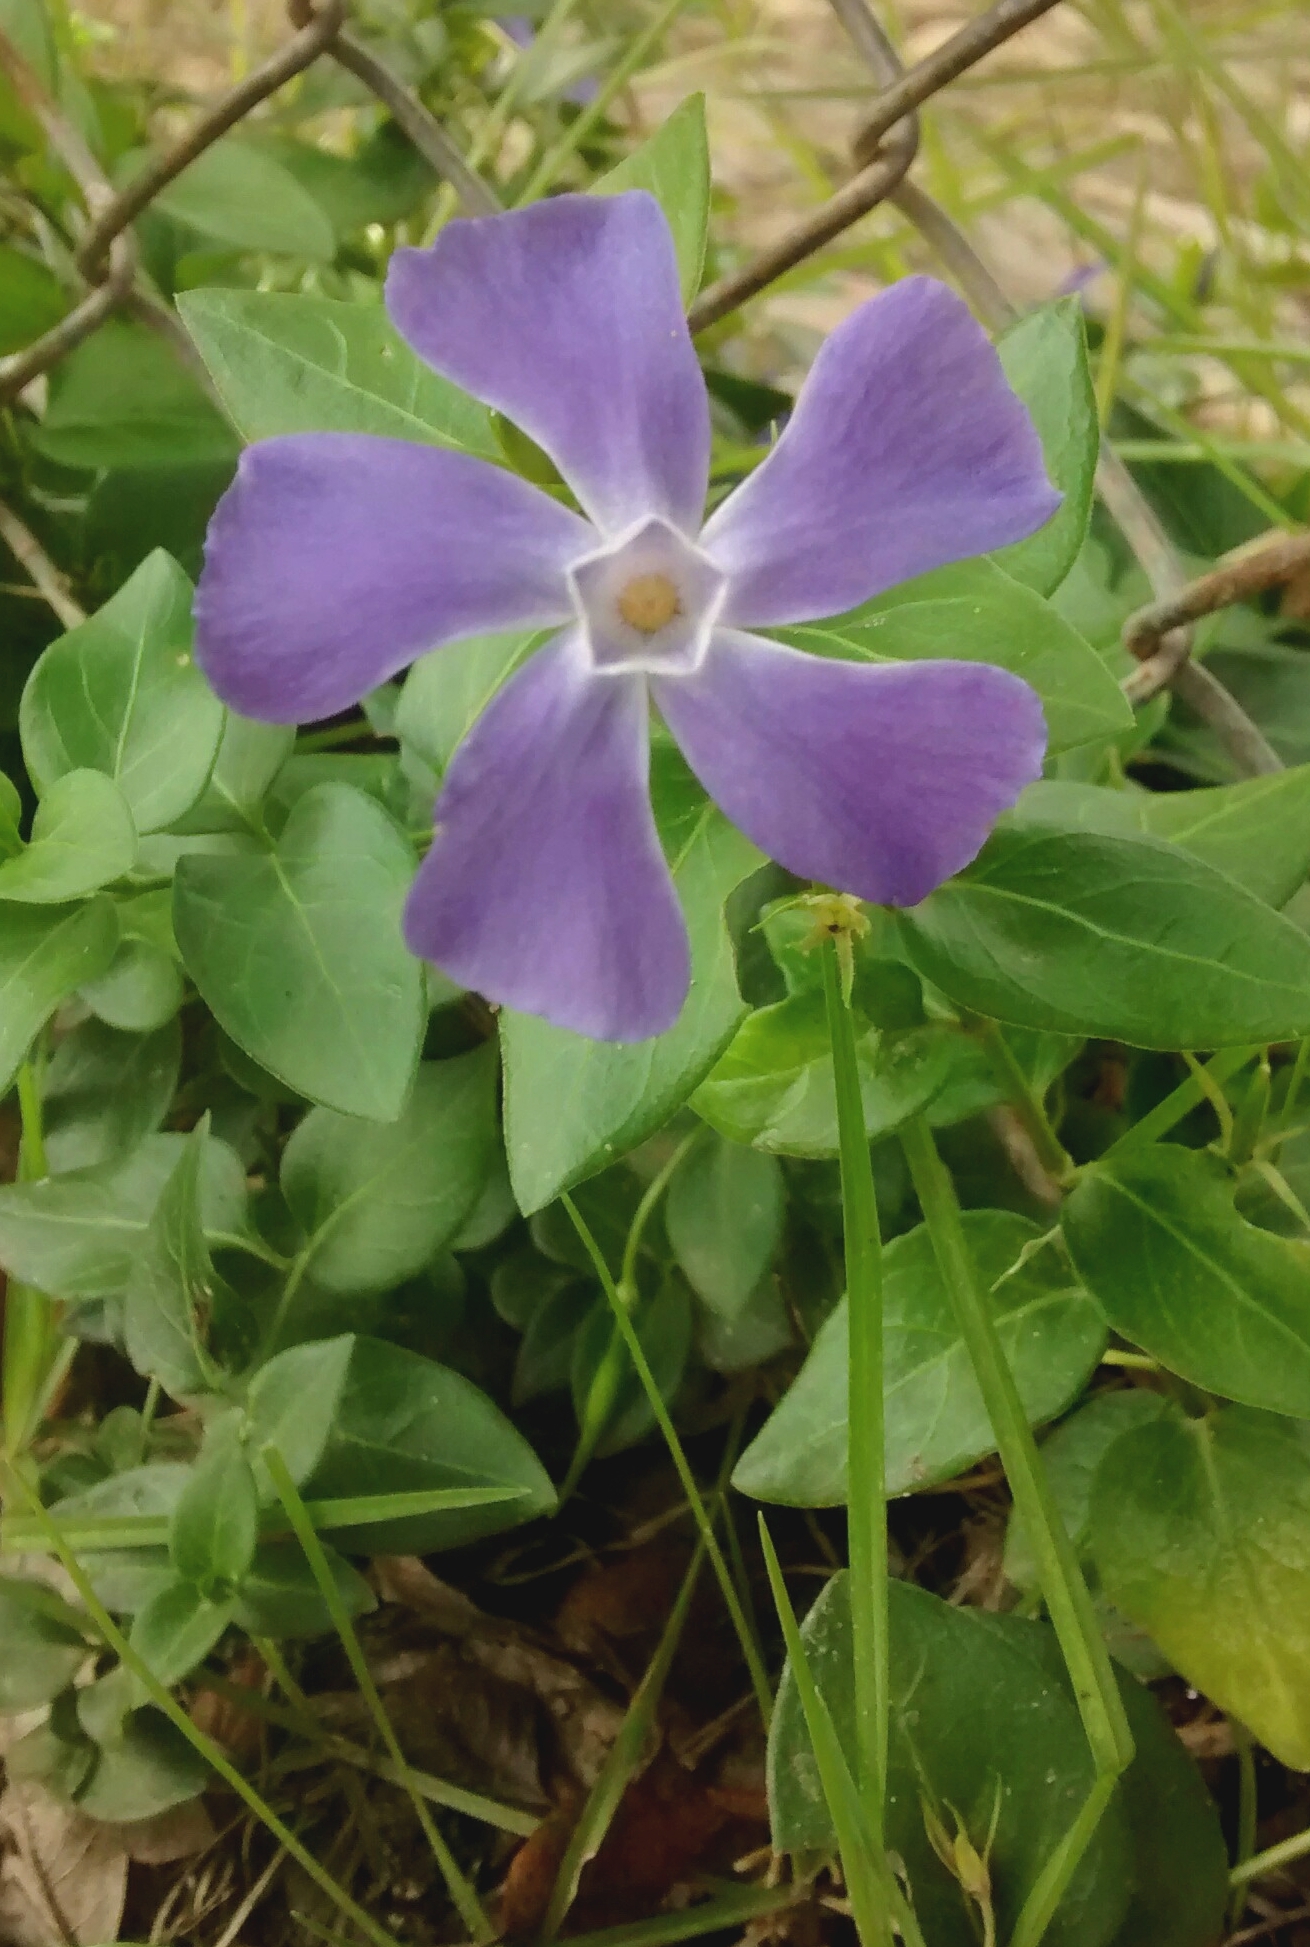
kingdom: Plantae
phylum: Tracheophyta
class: Magnoliopsida
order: Gentianales
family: Apocynaceae
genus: Vinca
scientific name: Vinca major
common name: Greater periwinkle
